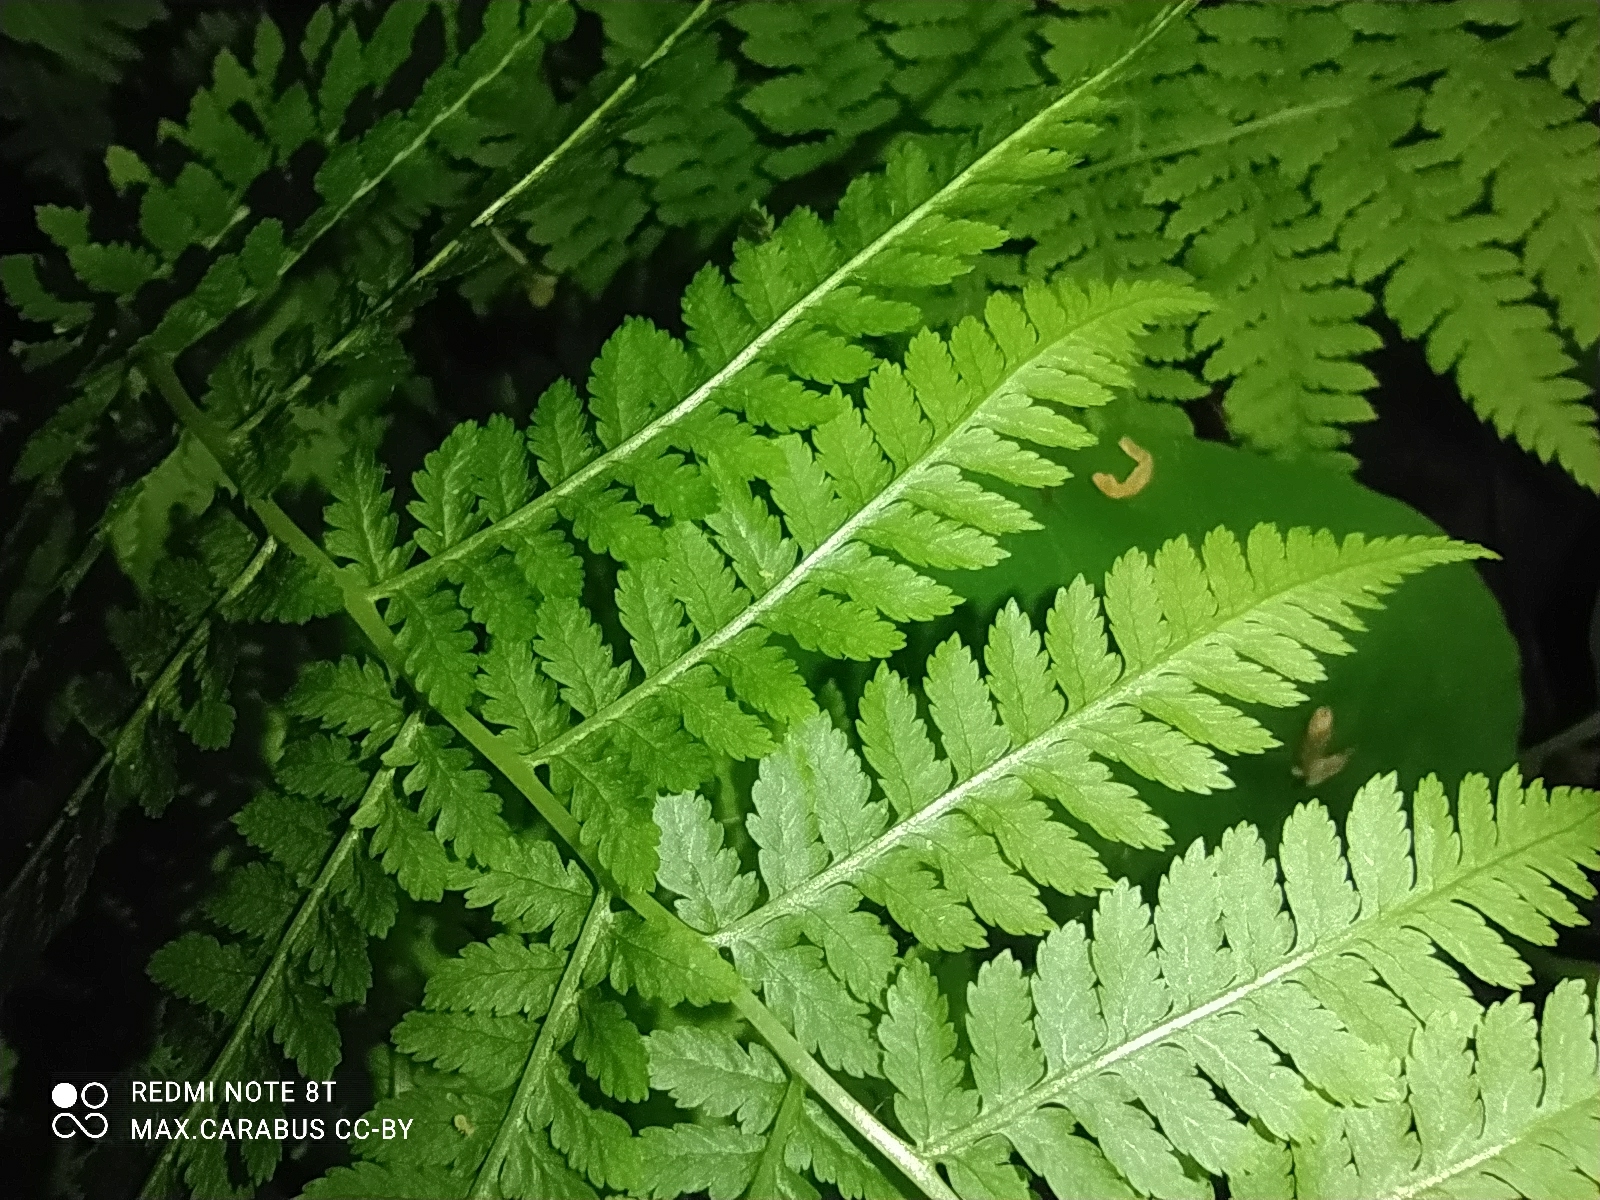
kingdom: Plantae
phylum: Tracheophyta
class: Polypodiopsida
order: Polypodiales
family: Dryopteridaceae
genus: Dryopteris
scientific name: Dryopteris carthusiana
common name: Narrow buckler-fern
